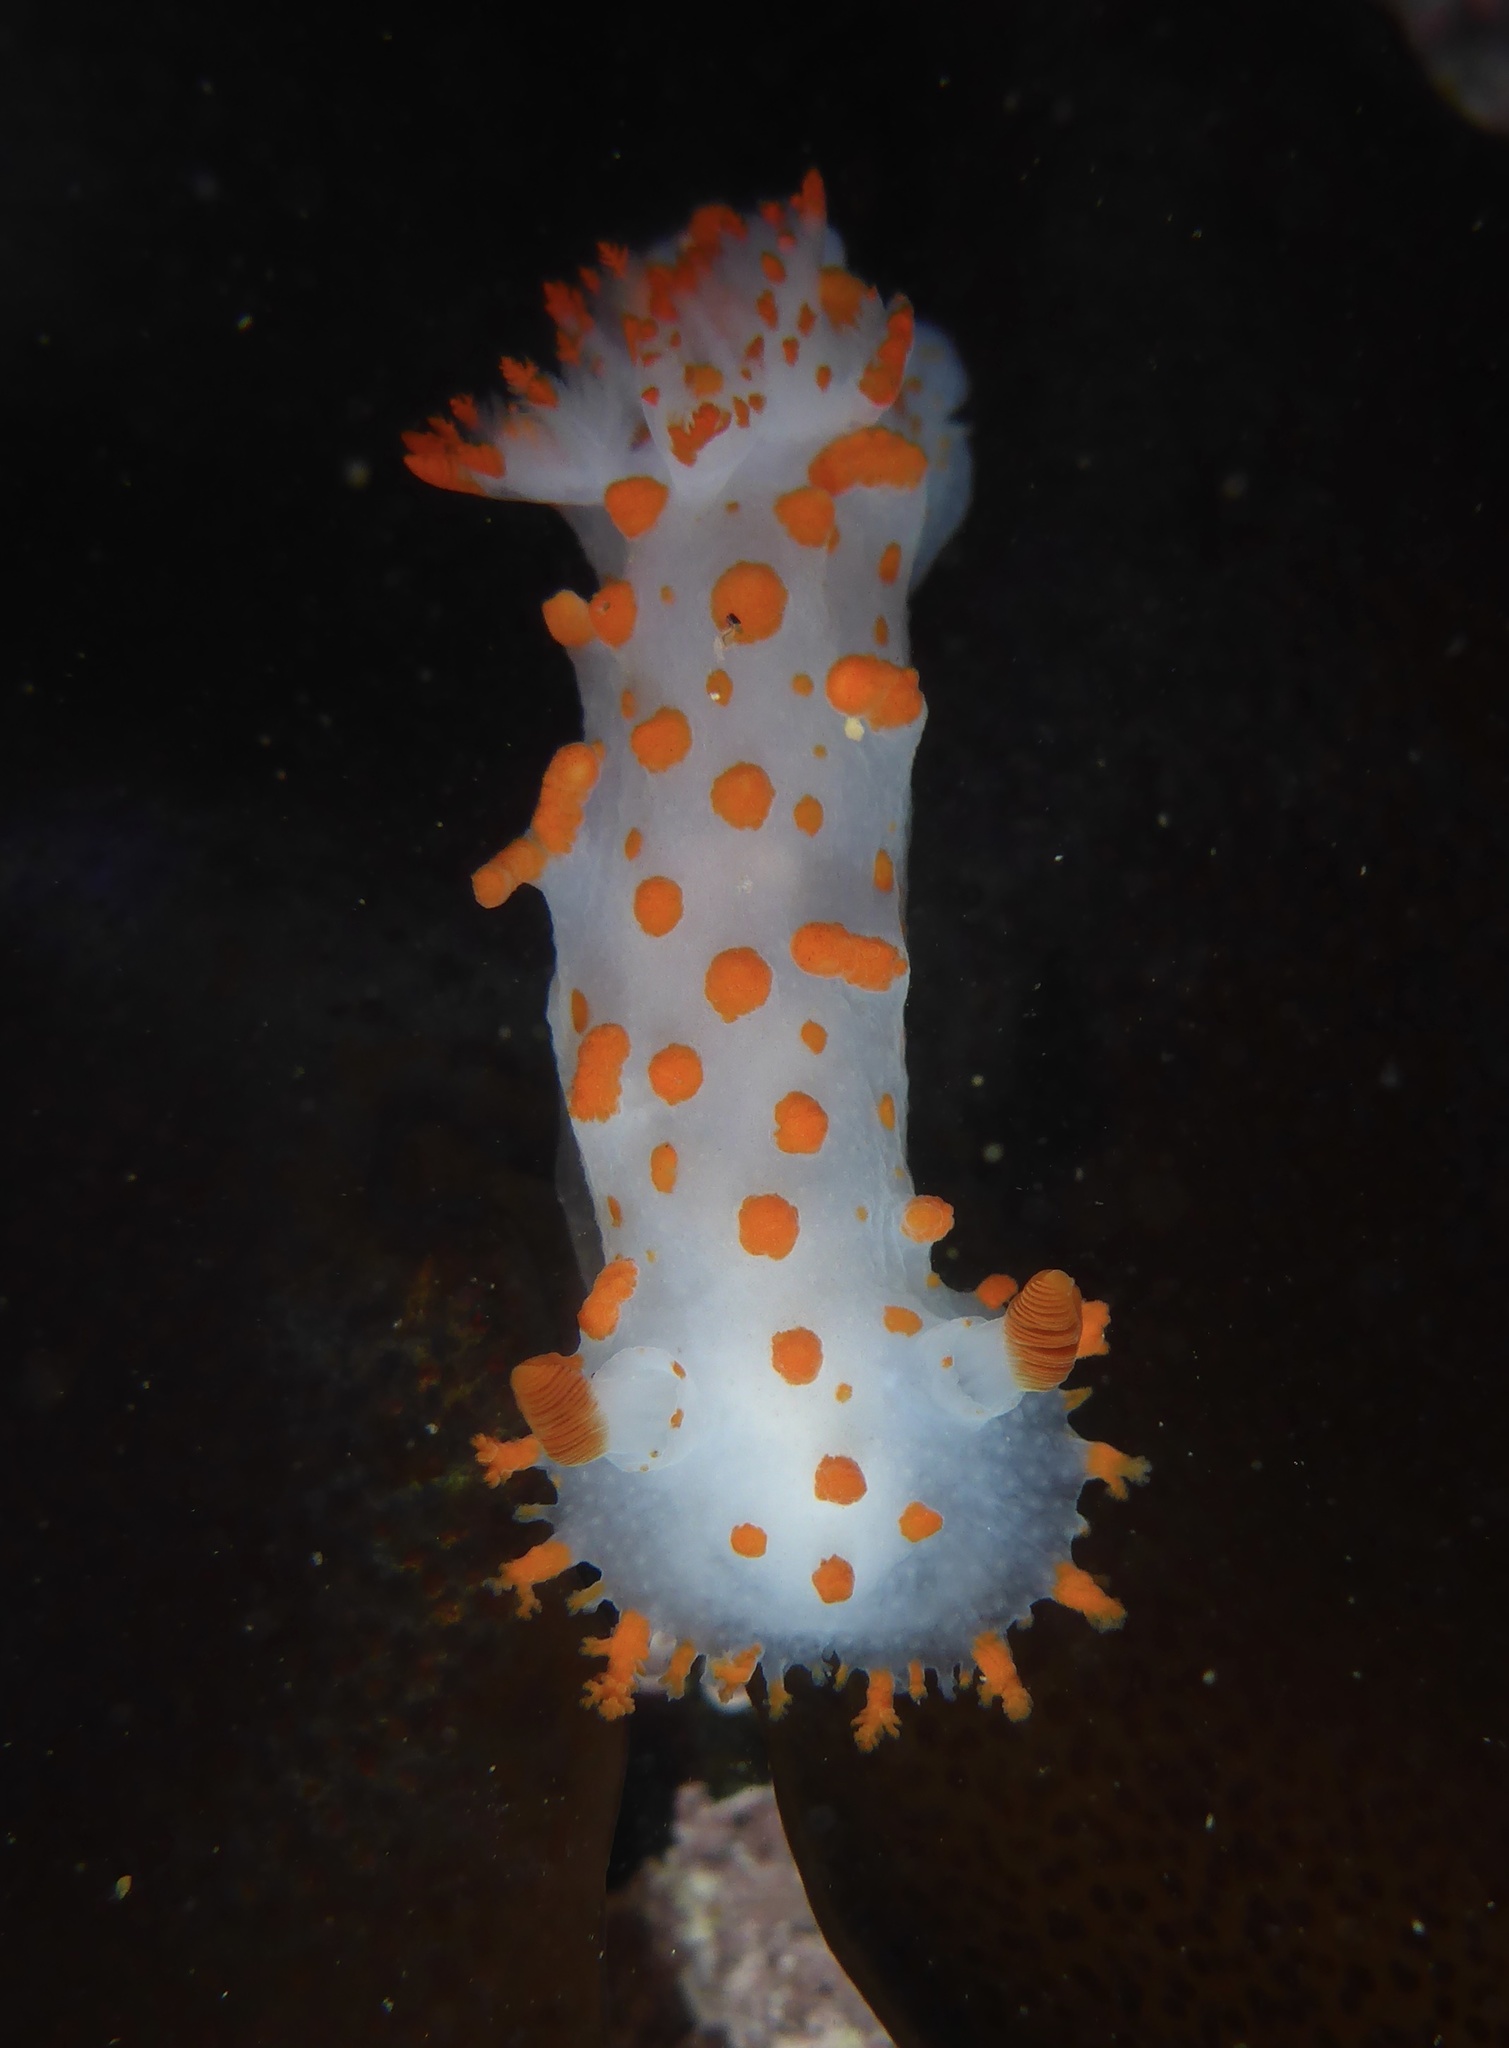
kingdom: Animalia
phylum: Mollusca
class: Gastropoda
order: Nudibranchia
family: Polyceridae
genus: Triopha
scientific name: Triopha catalinae
